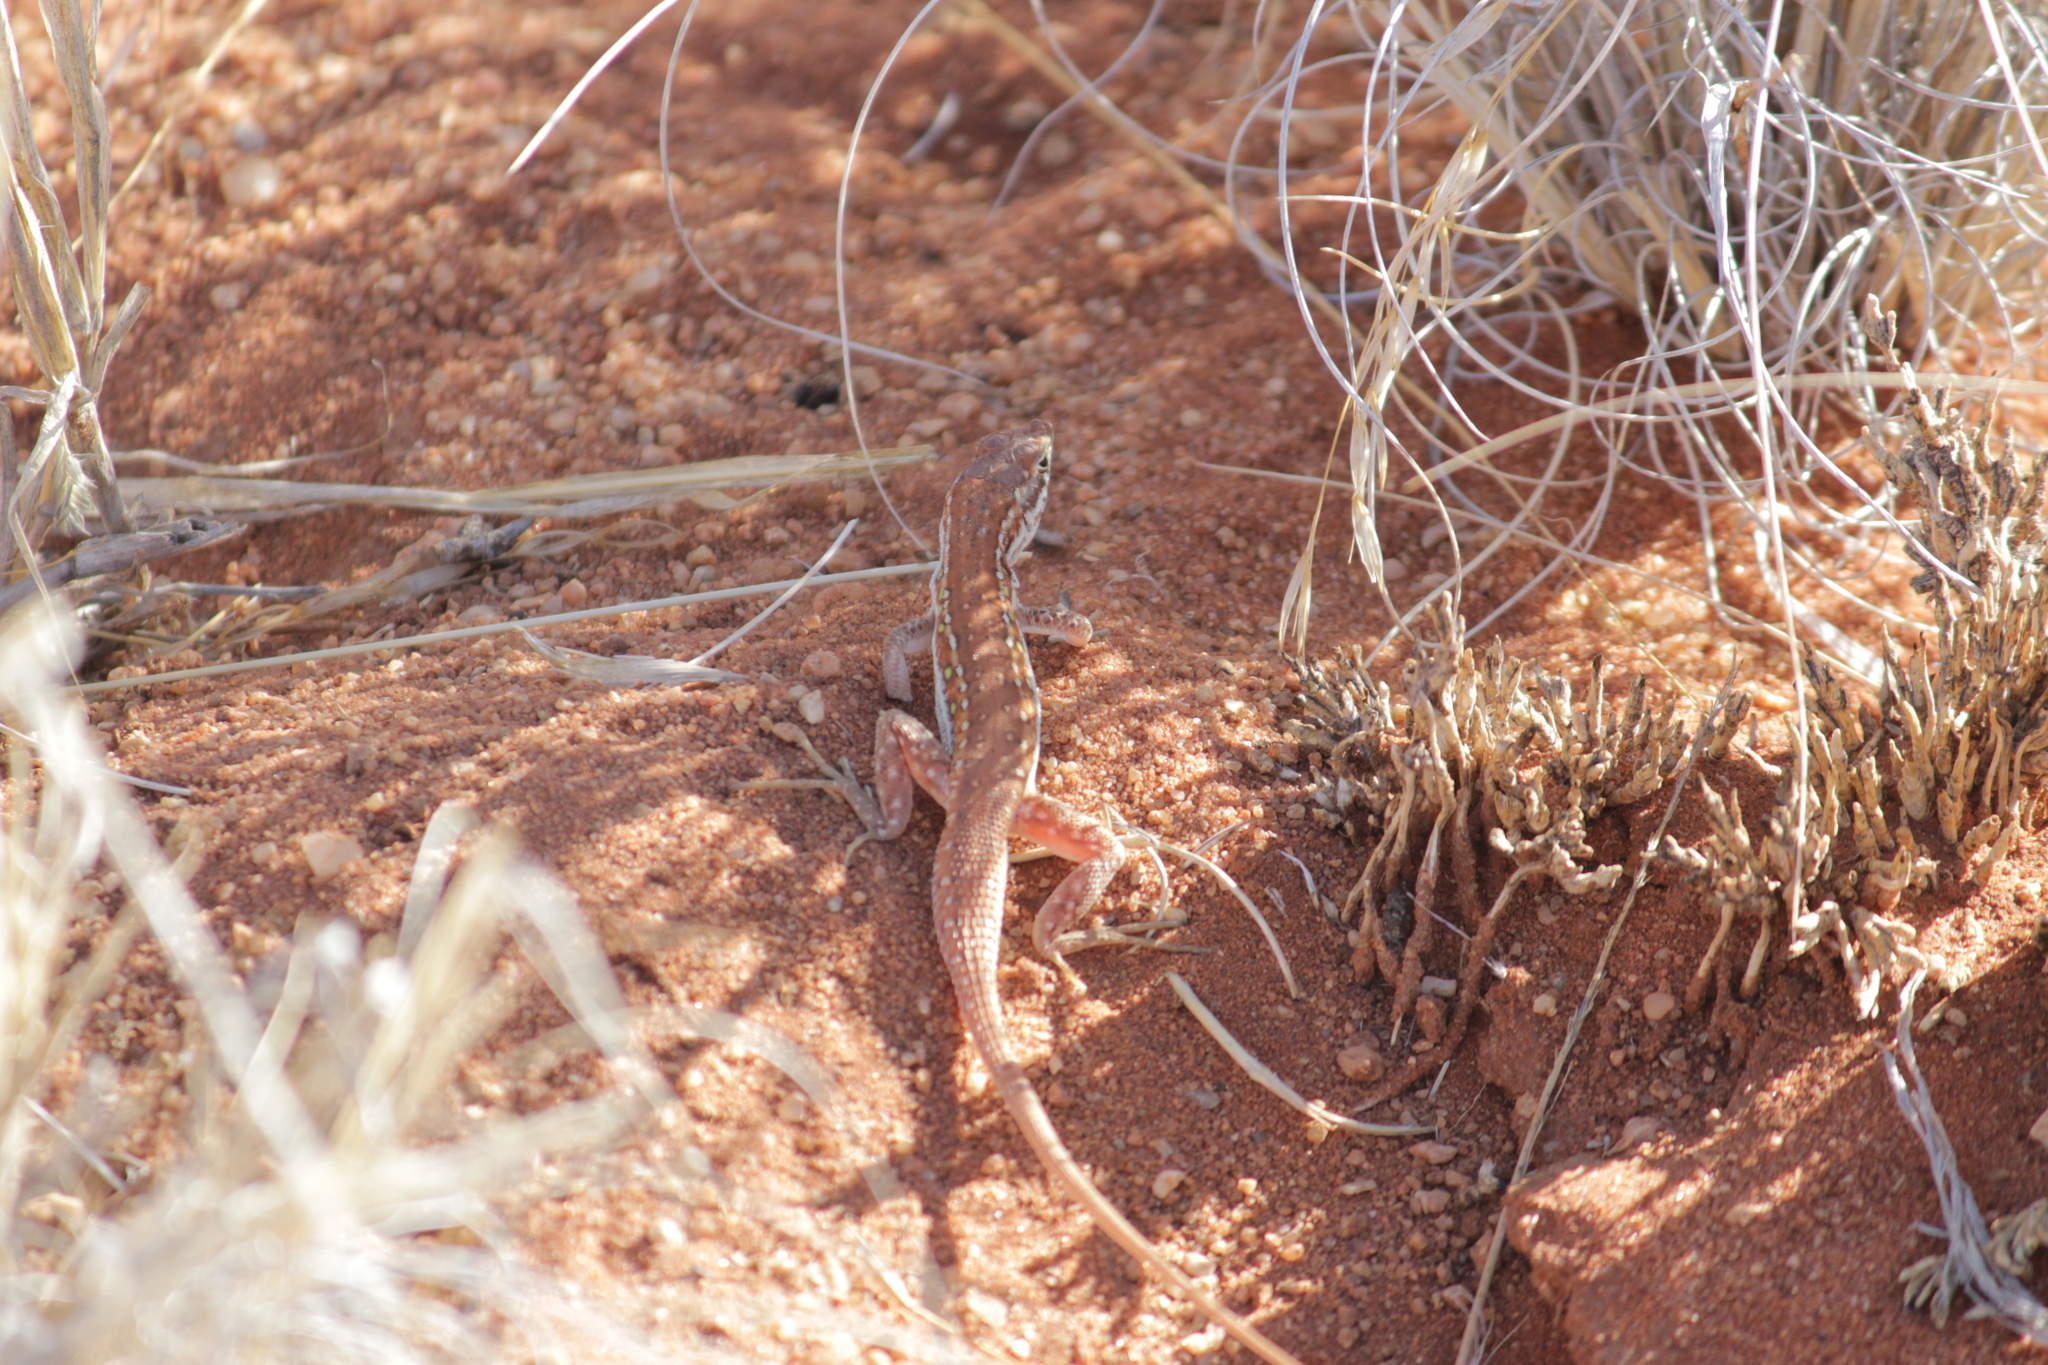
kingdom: Animalia
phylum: Chordata
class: Squamata
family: Lacertidae
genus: Pedioplanis
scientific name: Pedioplanis lineoocellata
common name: Spotted sand lizard
